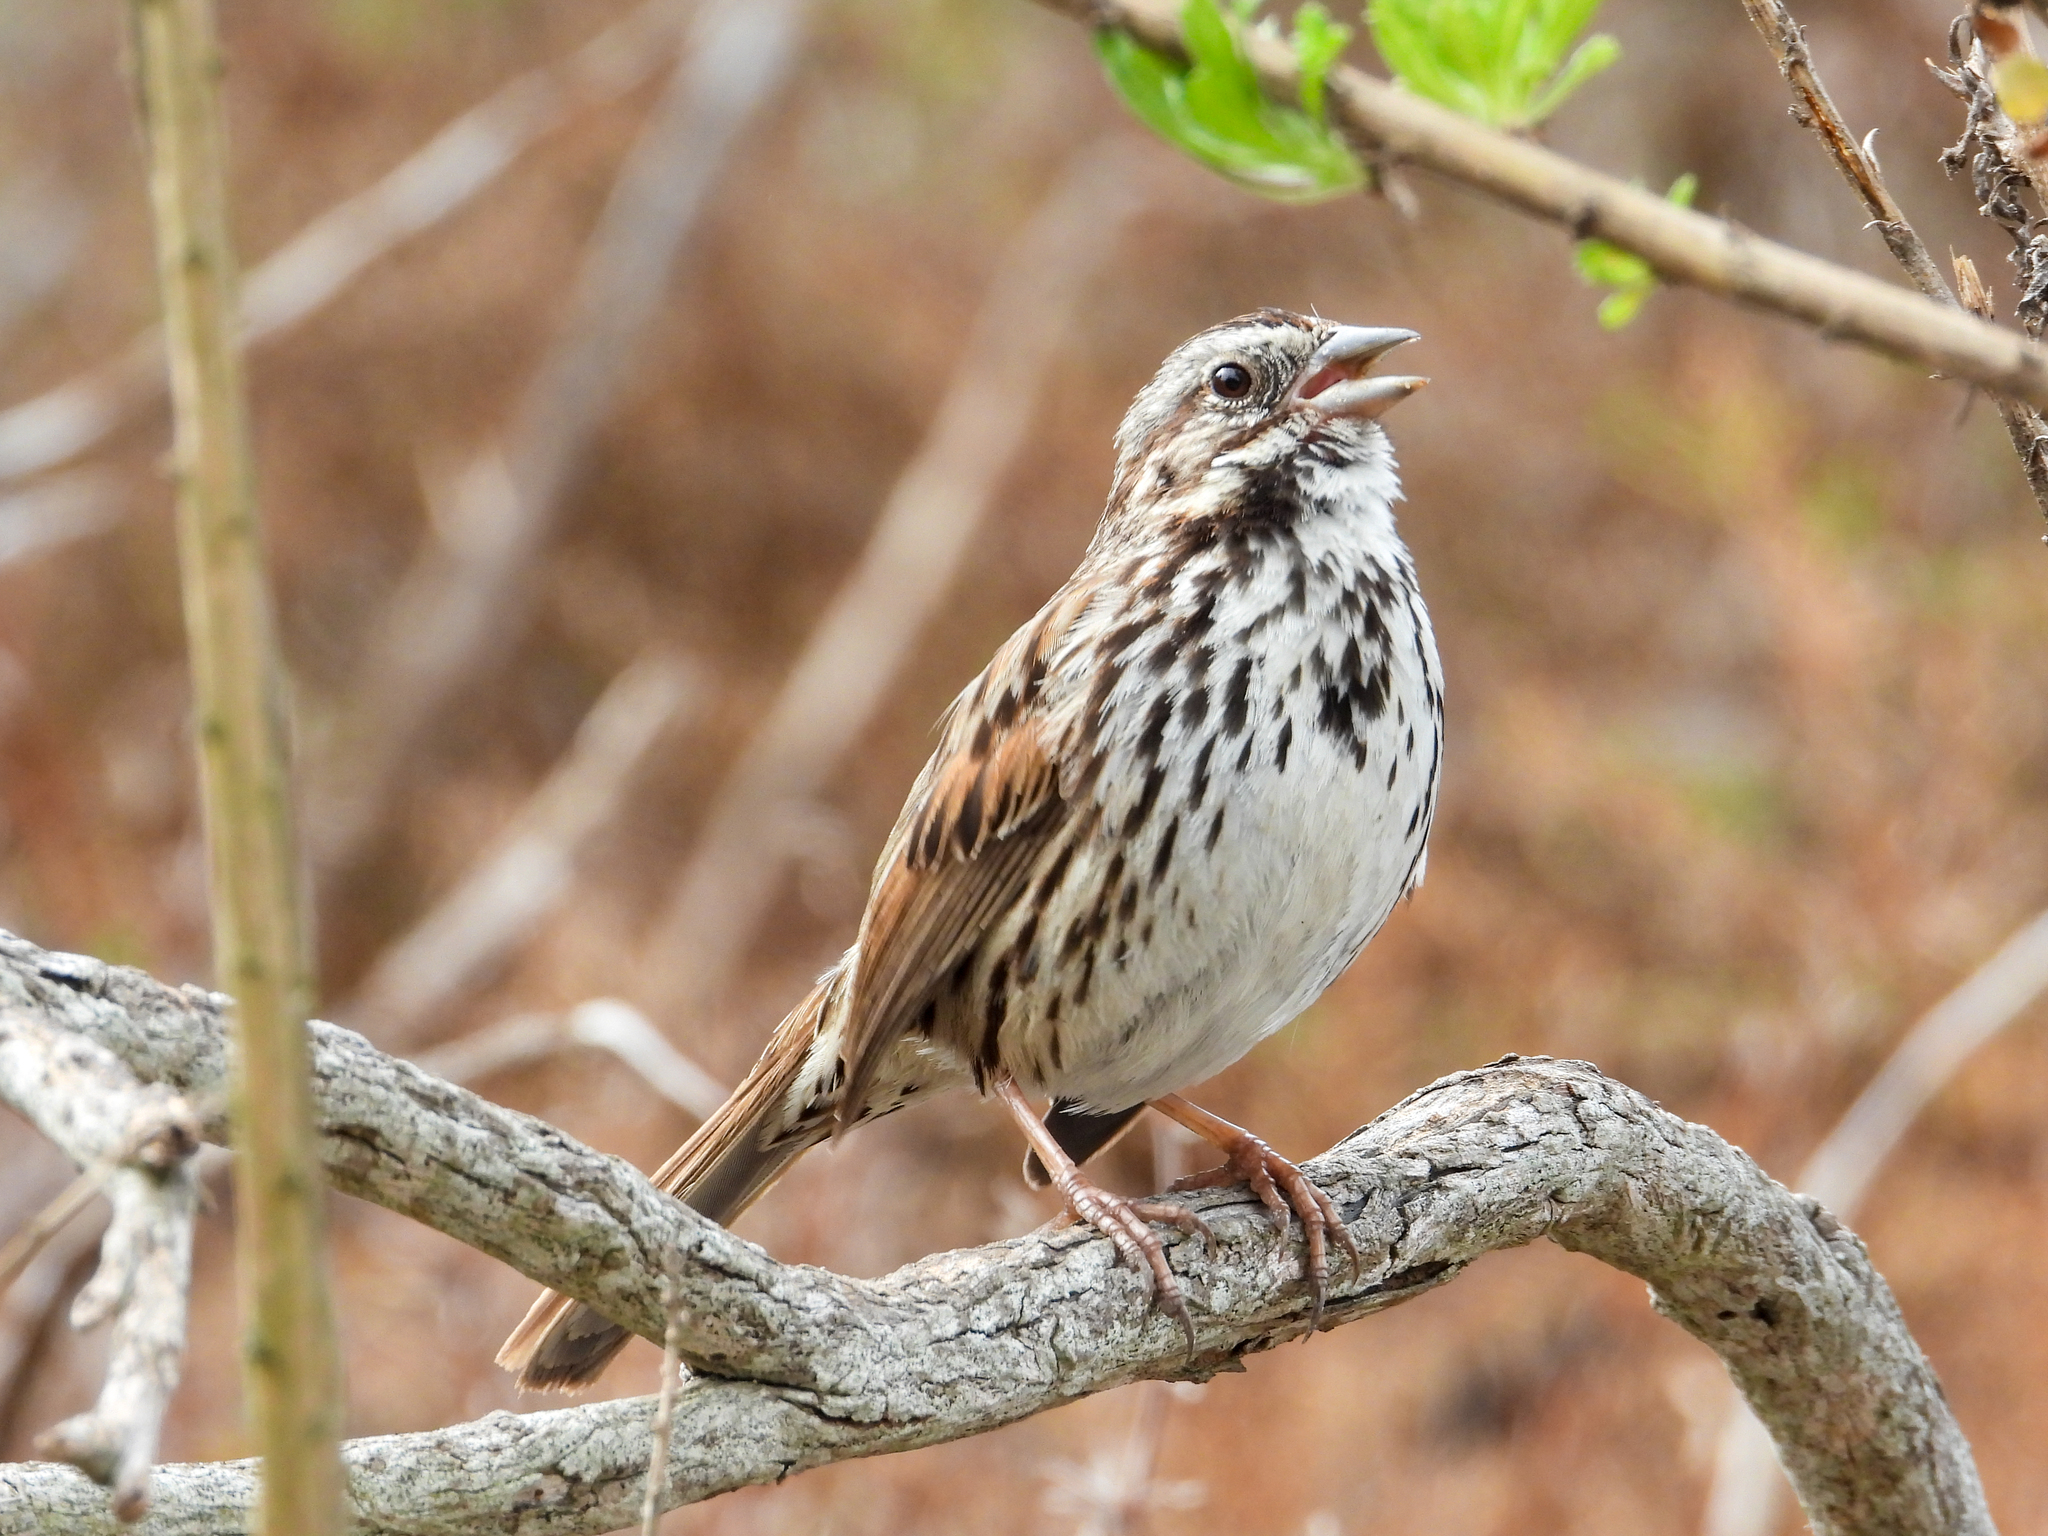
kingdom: Animalia
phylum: Chordata
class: Aves
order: Passeriformes
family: Passerellidae
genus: Melospiza
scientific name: Melospiza melodia
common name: Song sparrow
